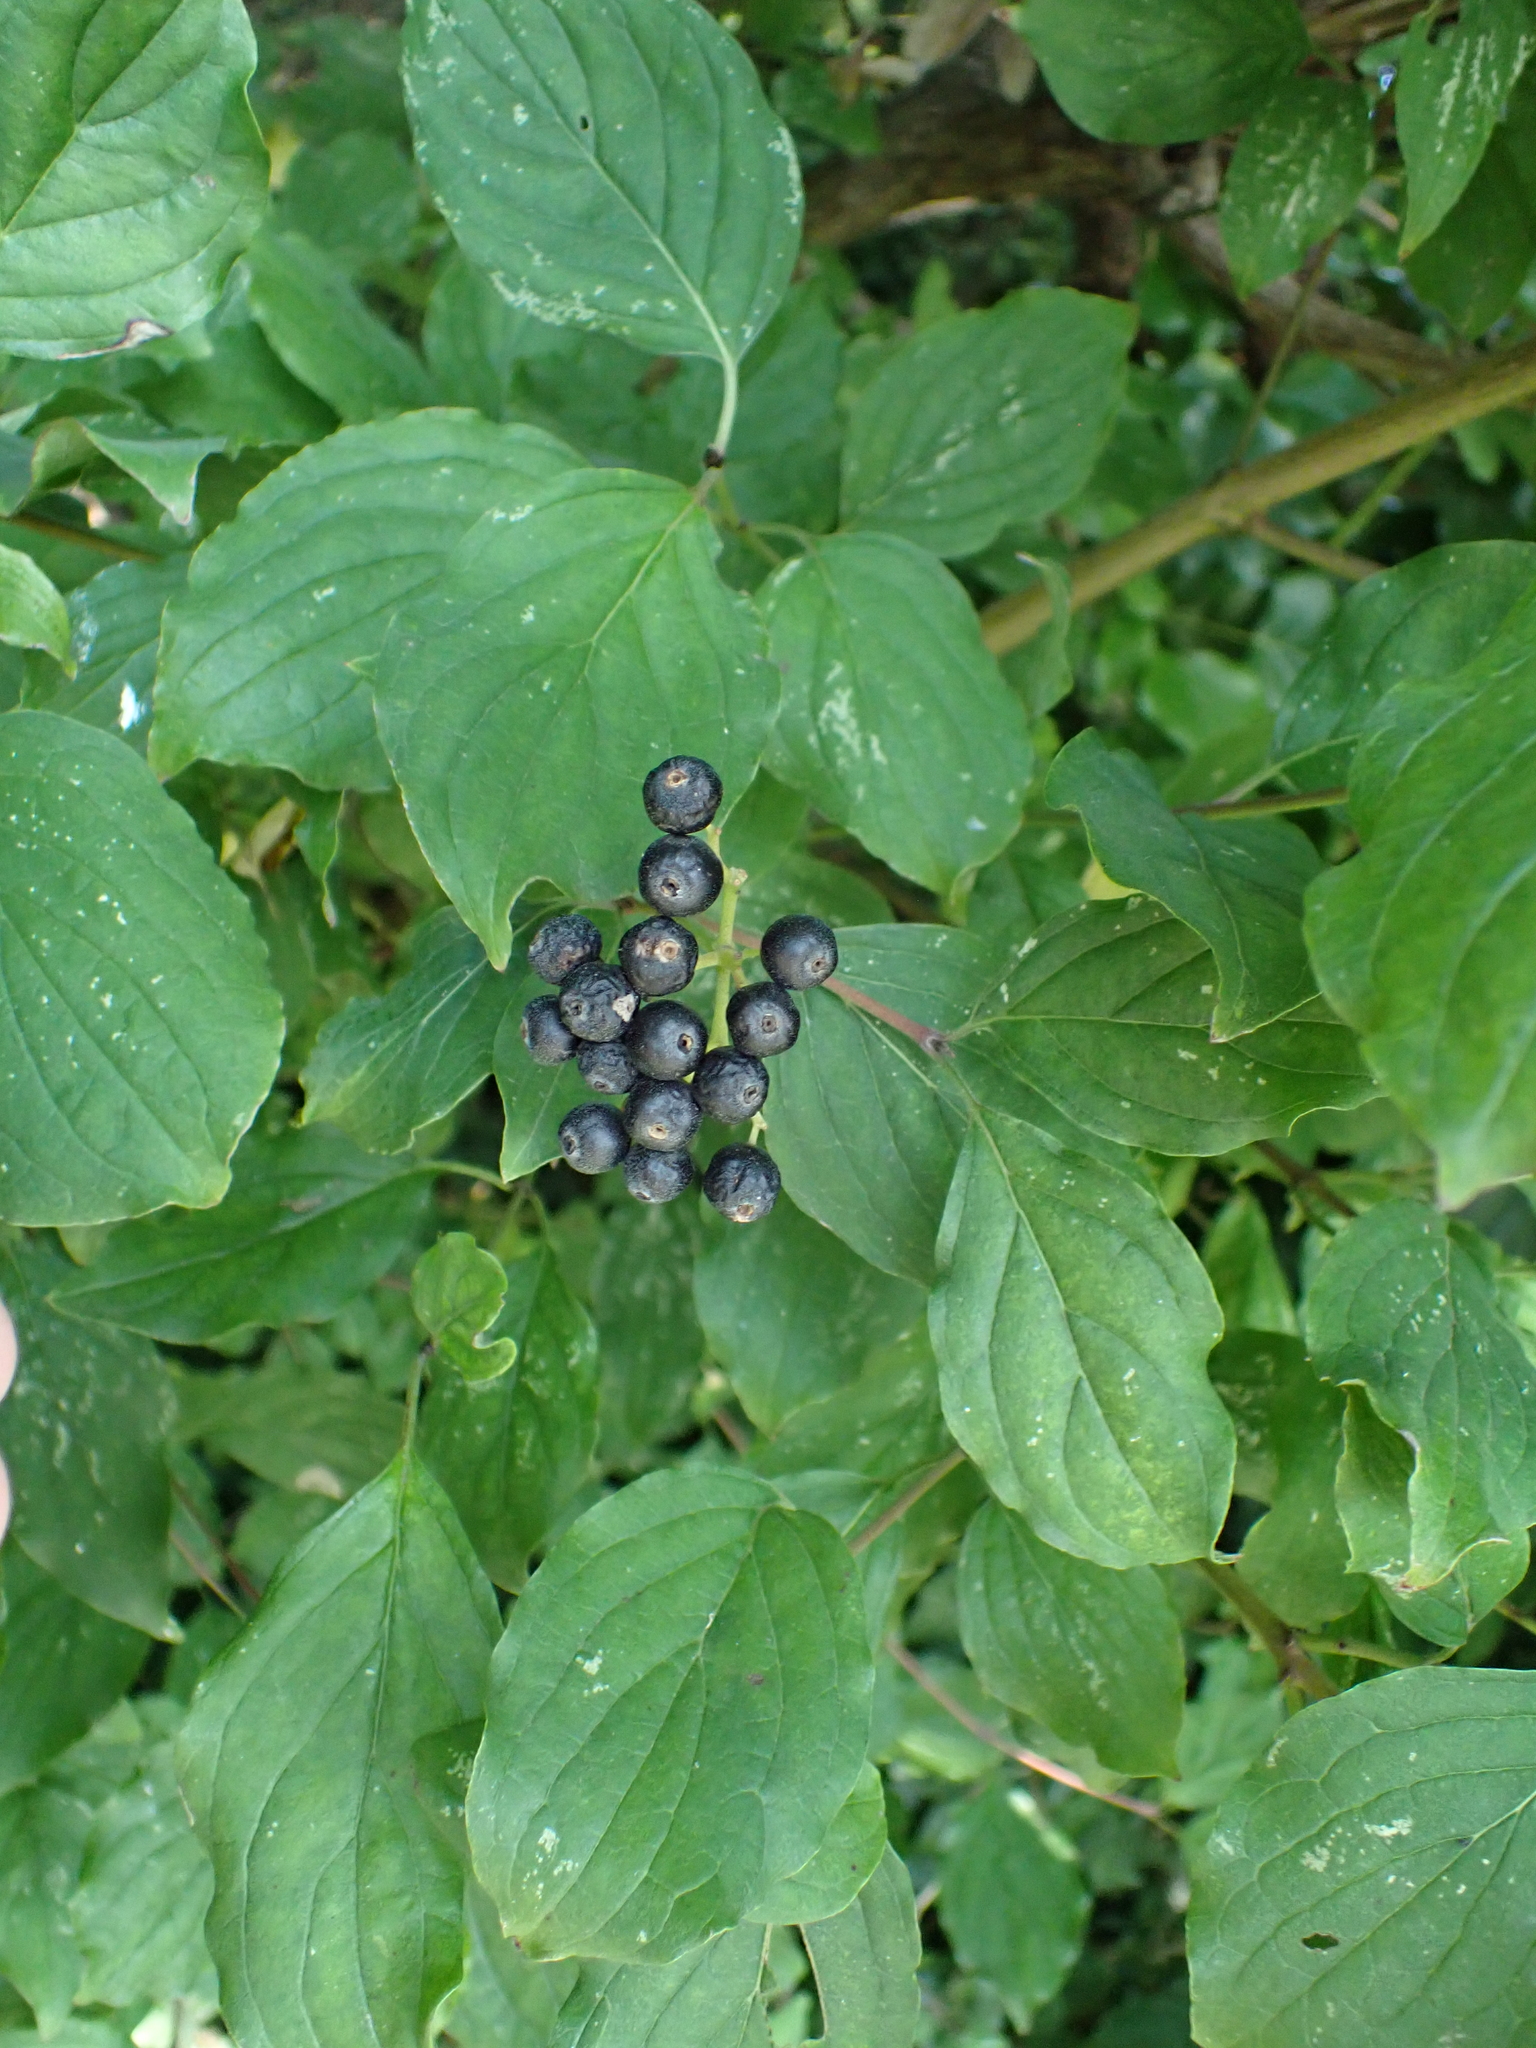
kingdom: Plantae
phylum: Tracheophyta
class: Magnoliopsida
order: Cornales
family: Cornaceae
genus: Cornus
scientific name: Cornus sanguinea
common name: Dogwood
